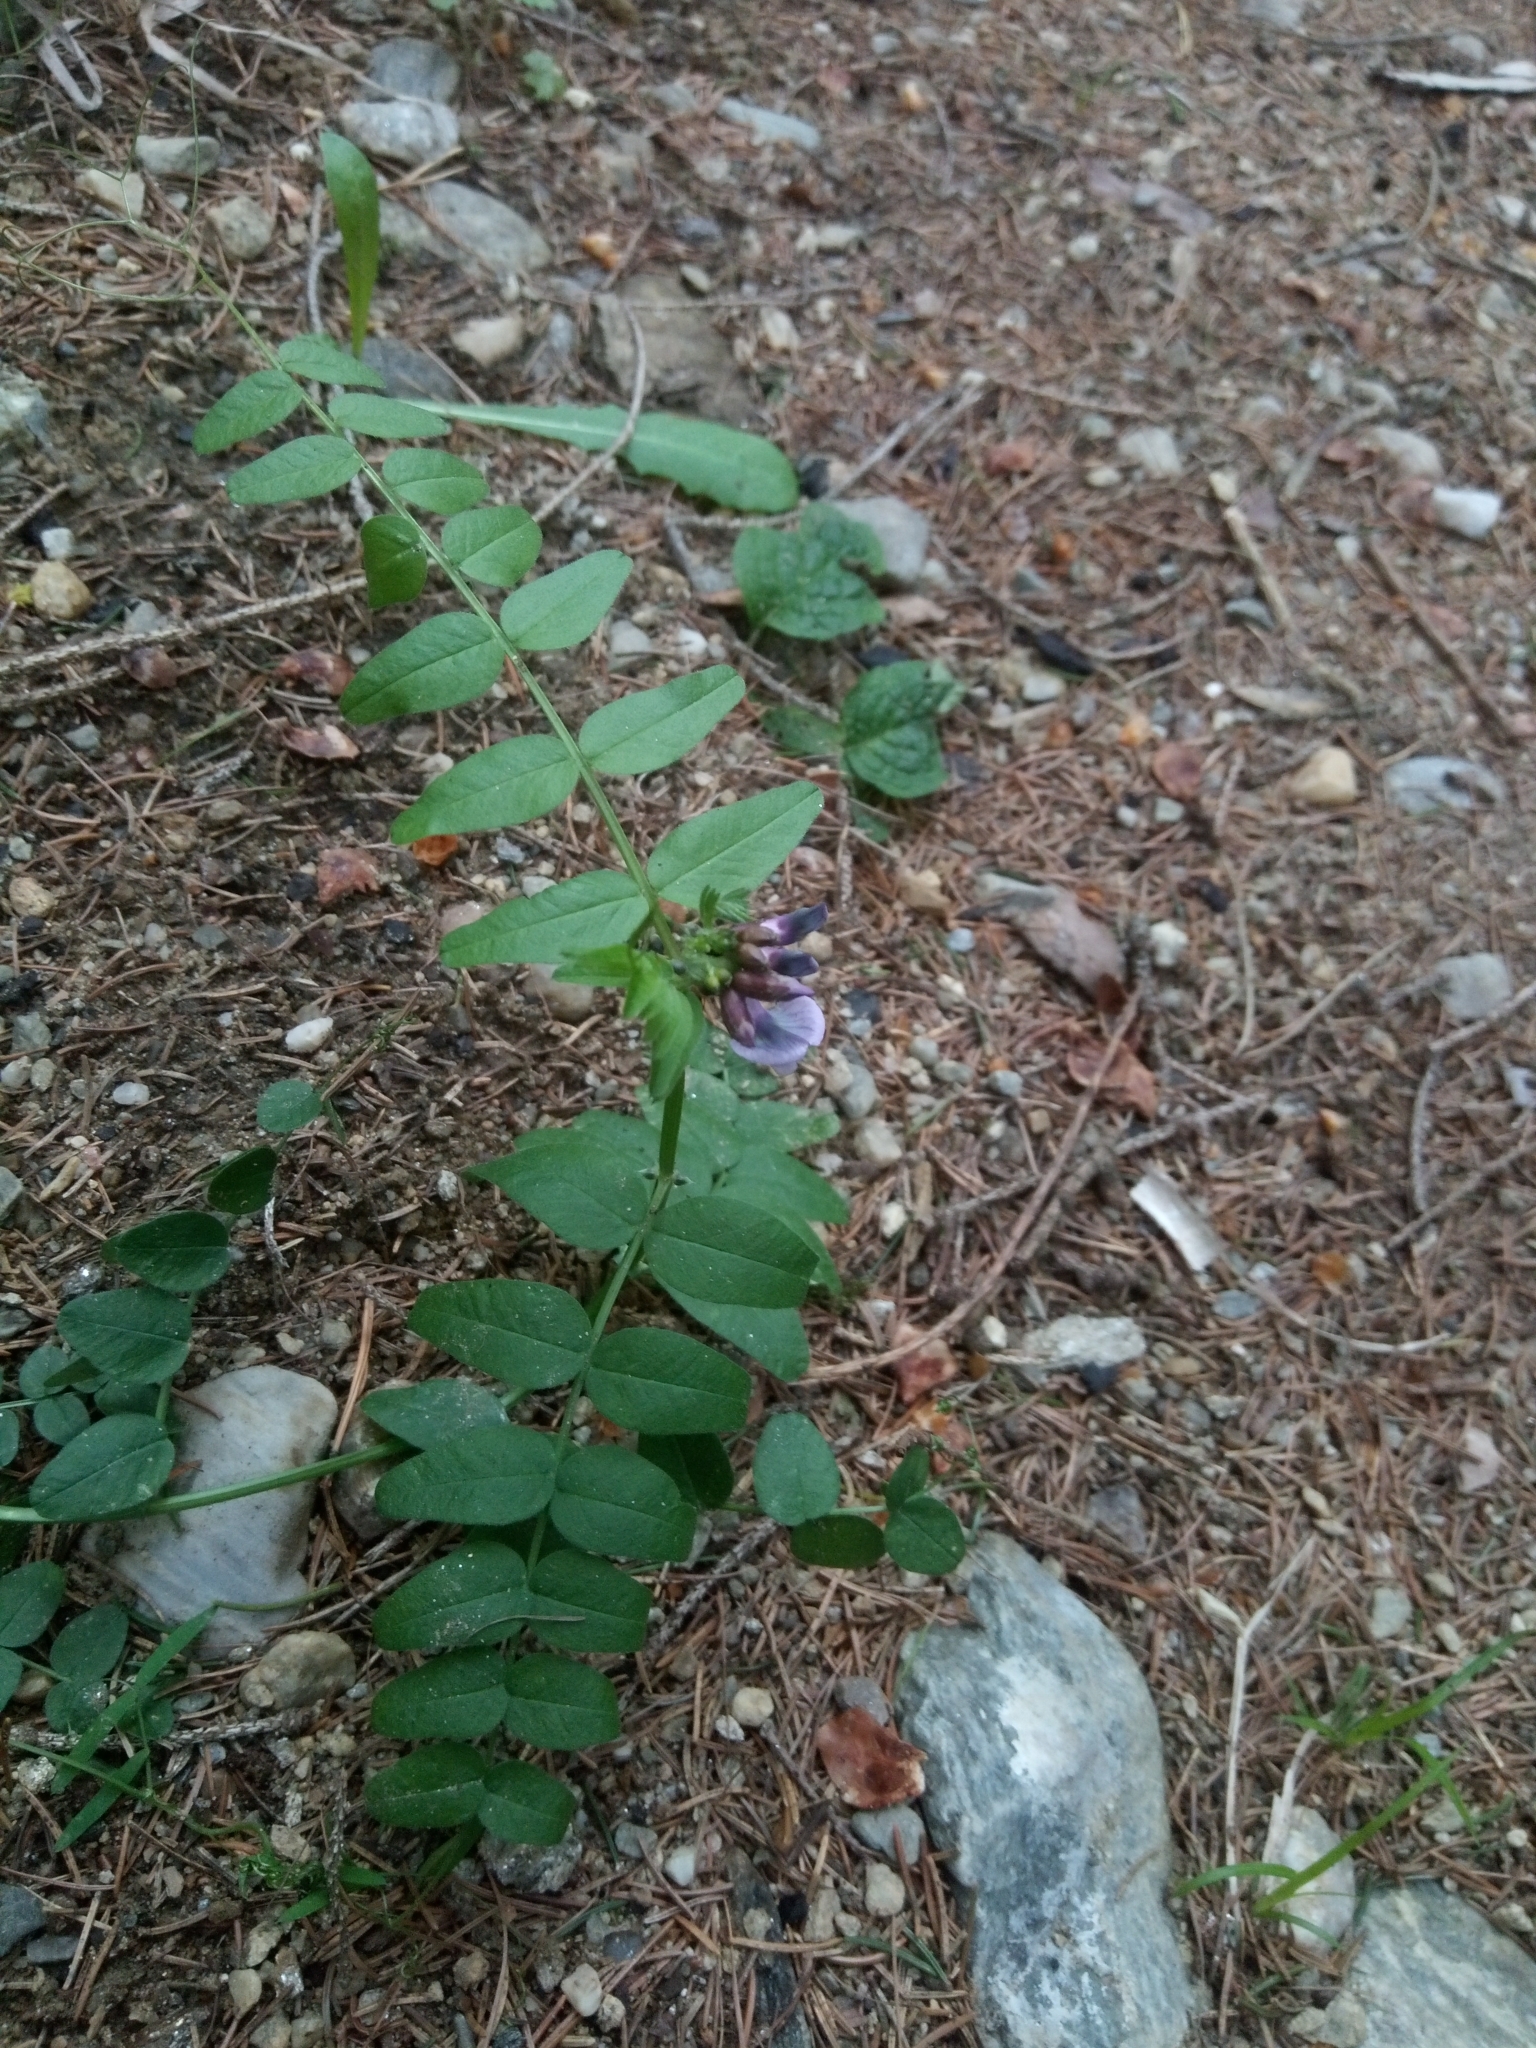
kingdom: Plantae
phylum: Tracheophyta
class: Magnoliopsida
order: Fabales
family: Fabaceae
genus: Vicia
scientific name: Vicia sepium
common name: Bush vetch
